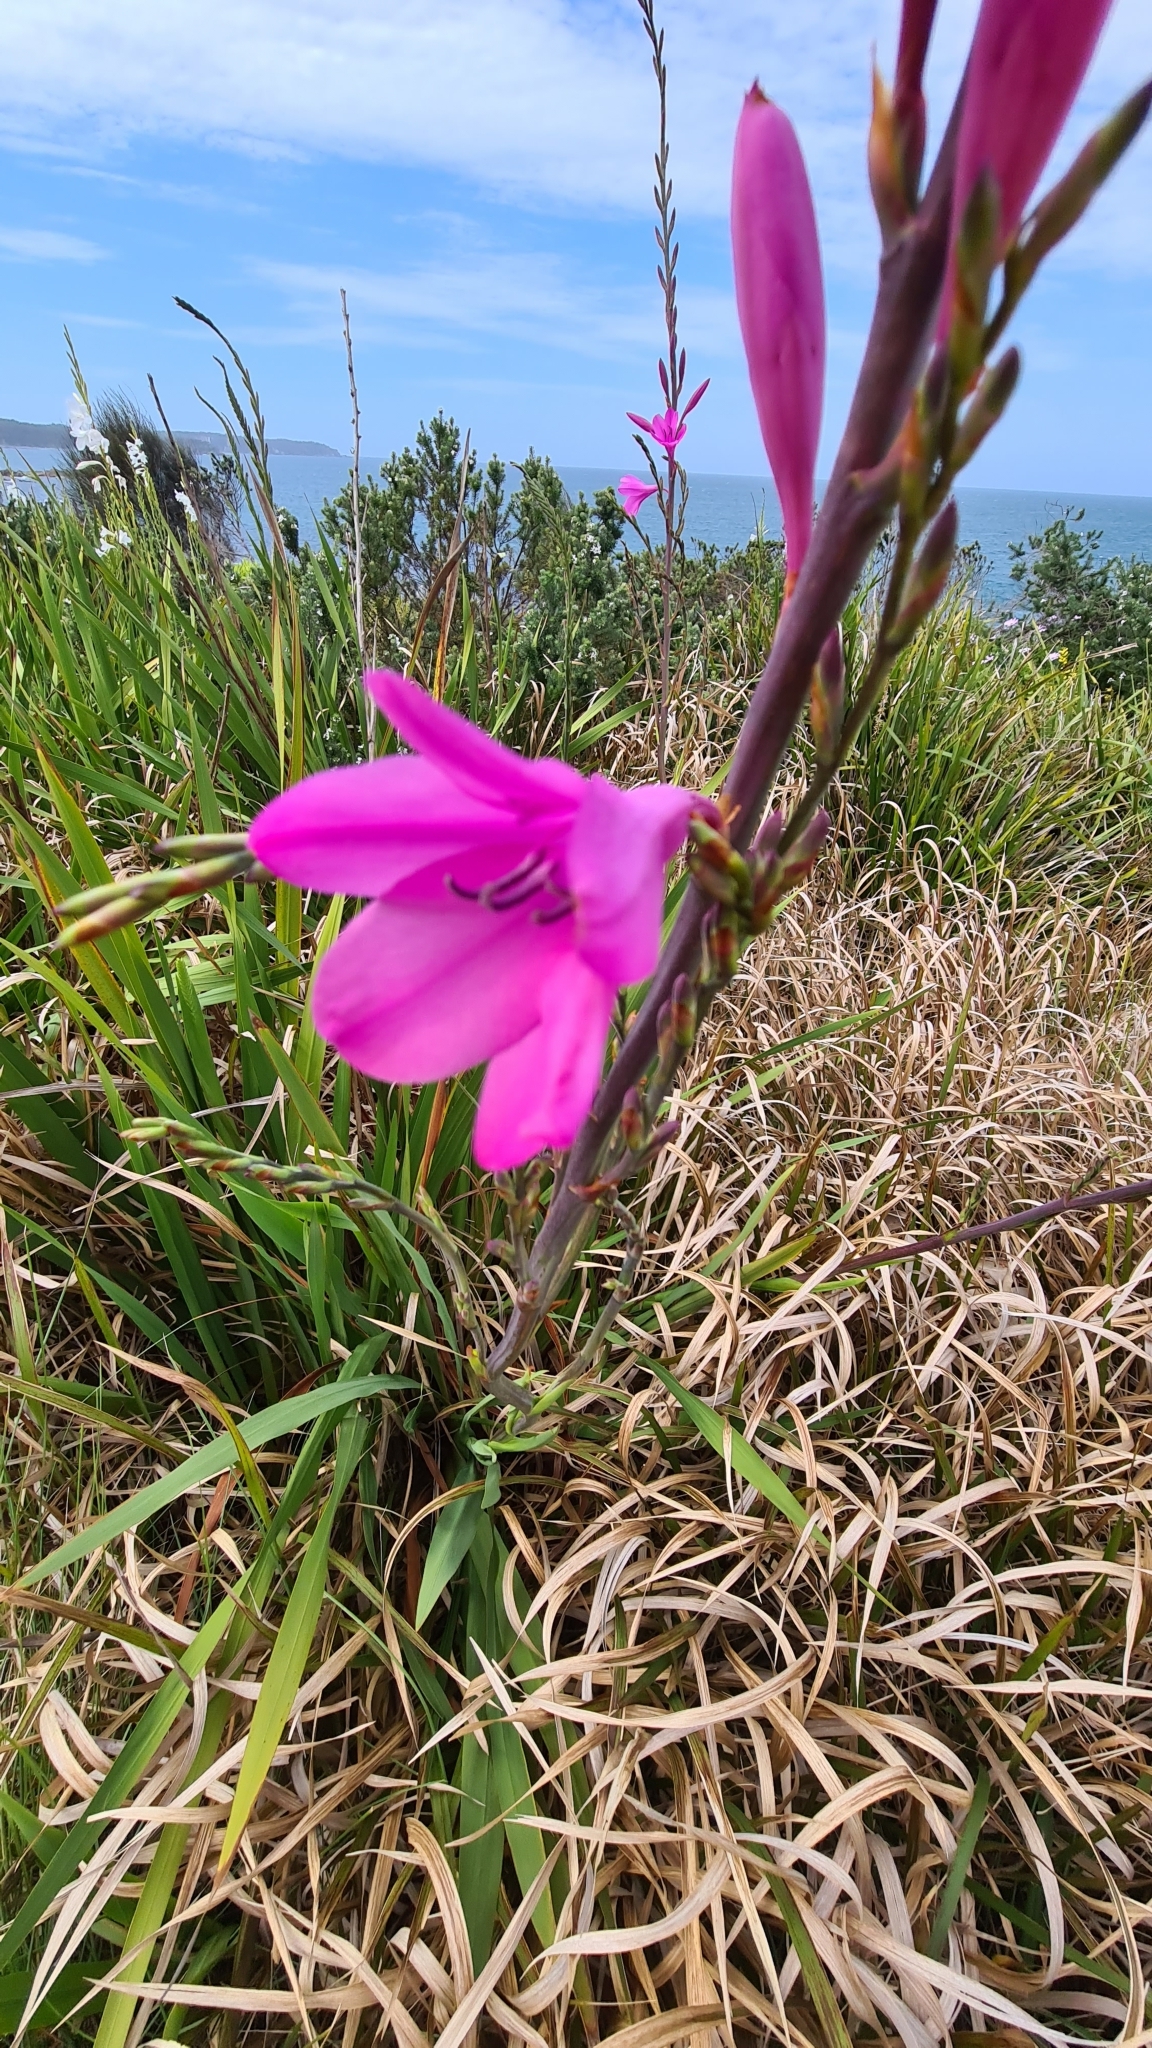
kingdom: Plantae
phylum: Tracheophyta
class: Liliopsida
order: Asparagales
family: Iridaceae
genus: Watsonia
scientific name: Watsonia borbonica
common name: Bugle-lily
